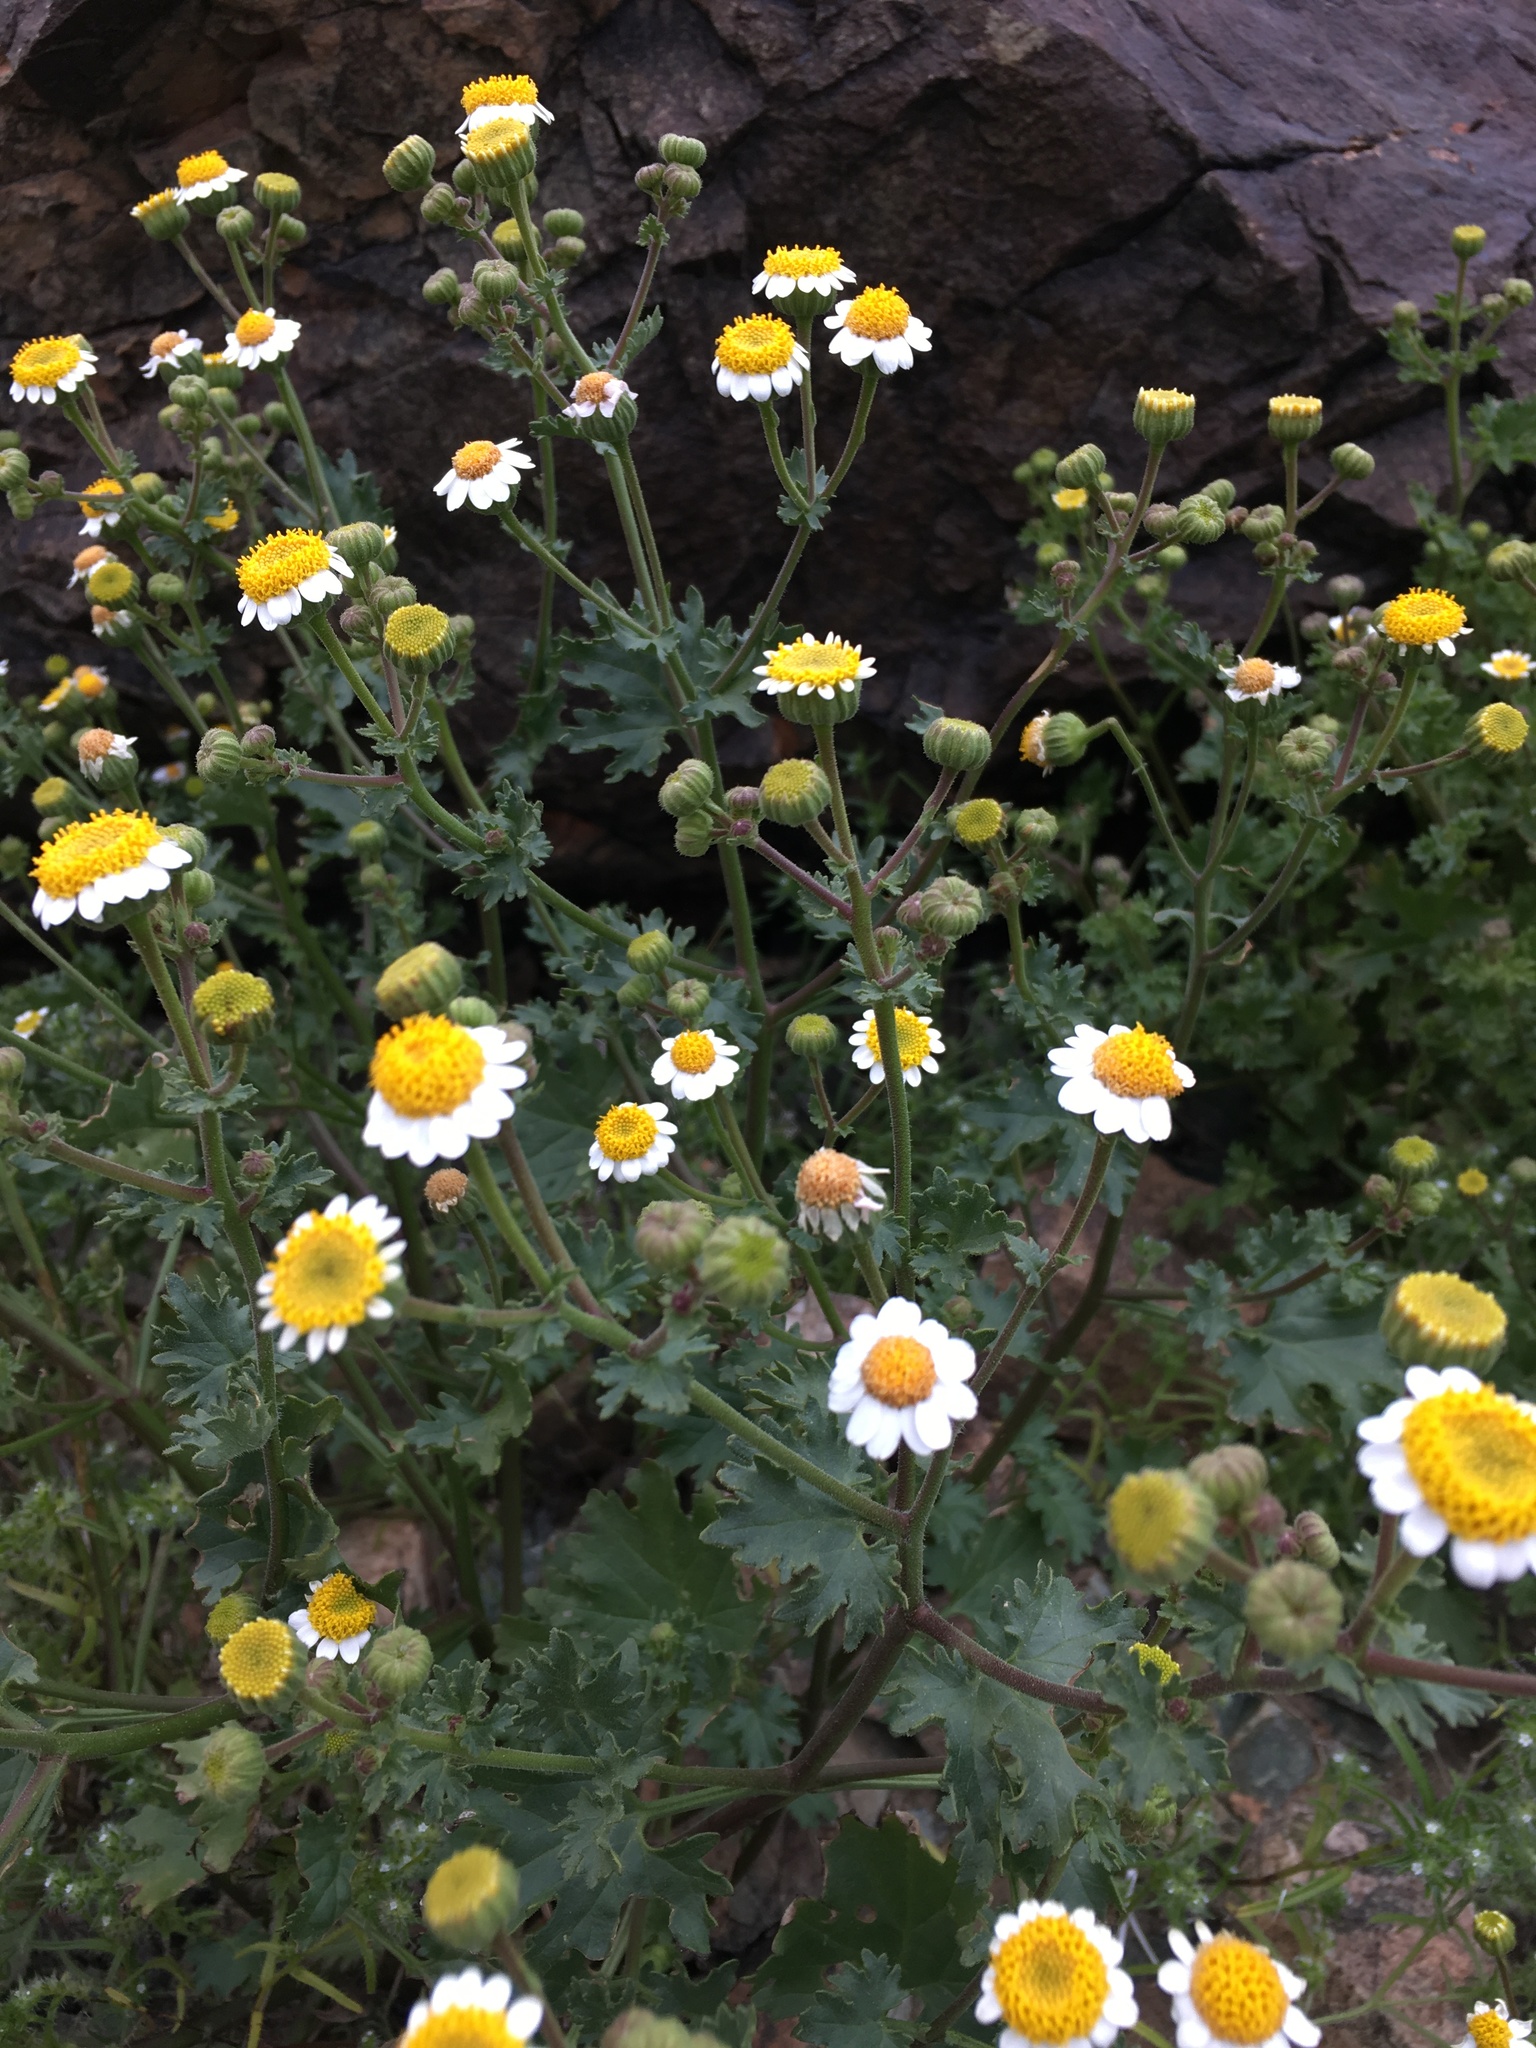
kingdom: Plantae
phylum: Tracheophyta
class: Magnoliopsida
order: Asterales
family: Asteraceae
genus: Laphamia
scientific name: Laphamia emoryi
